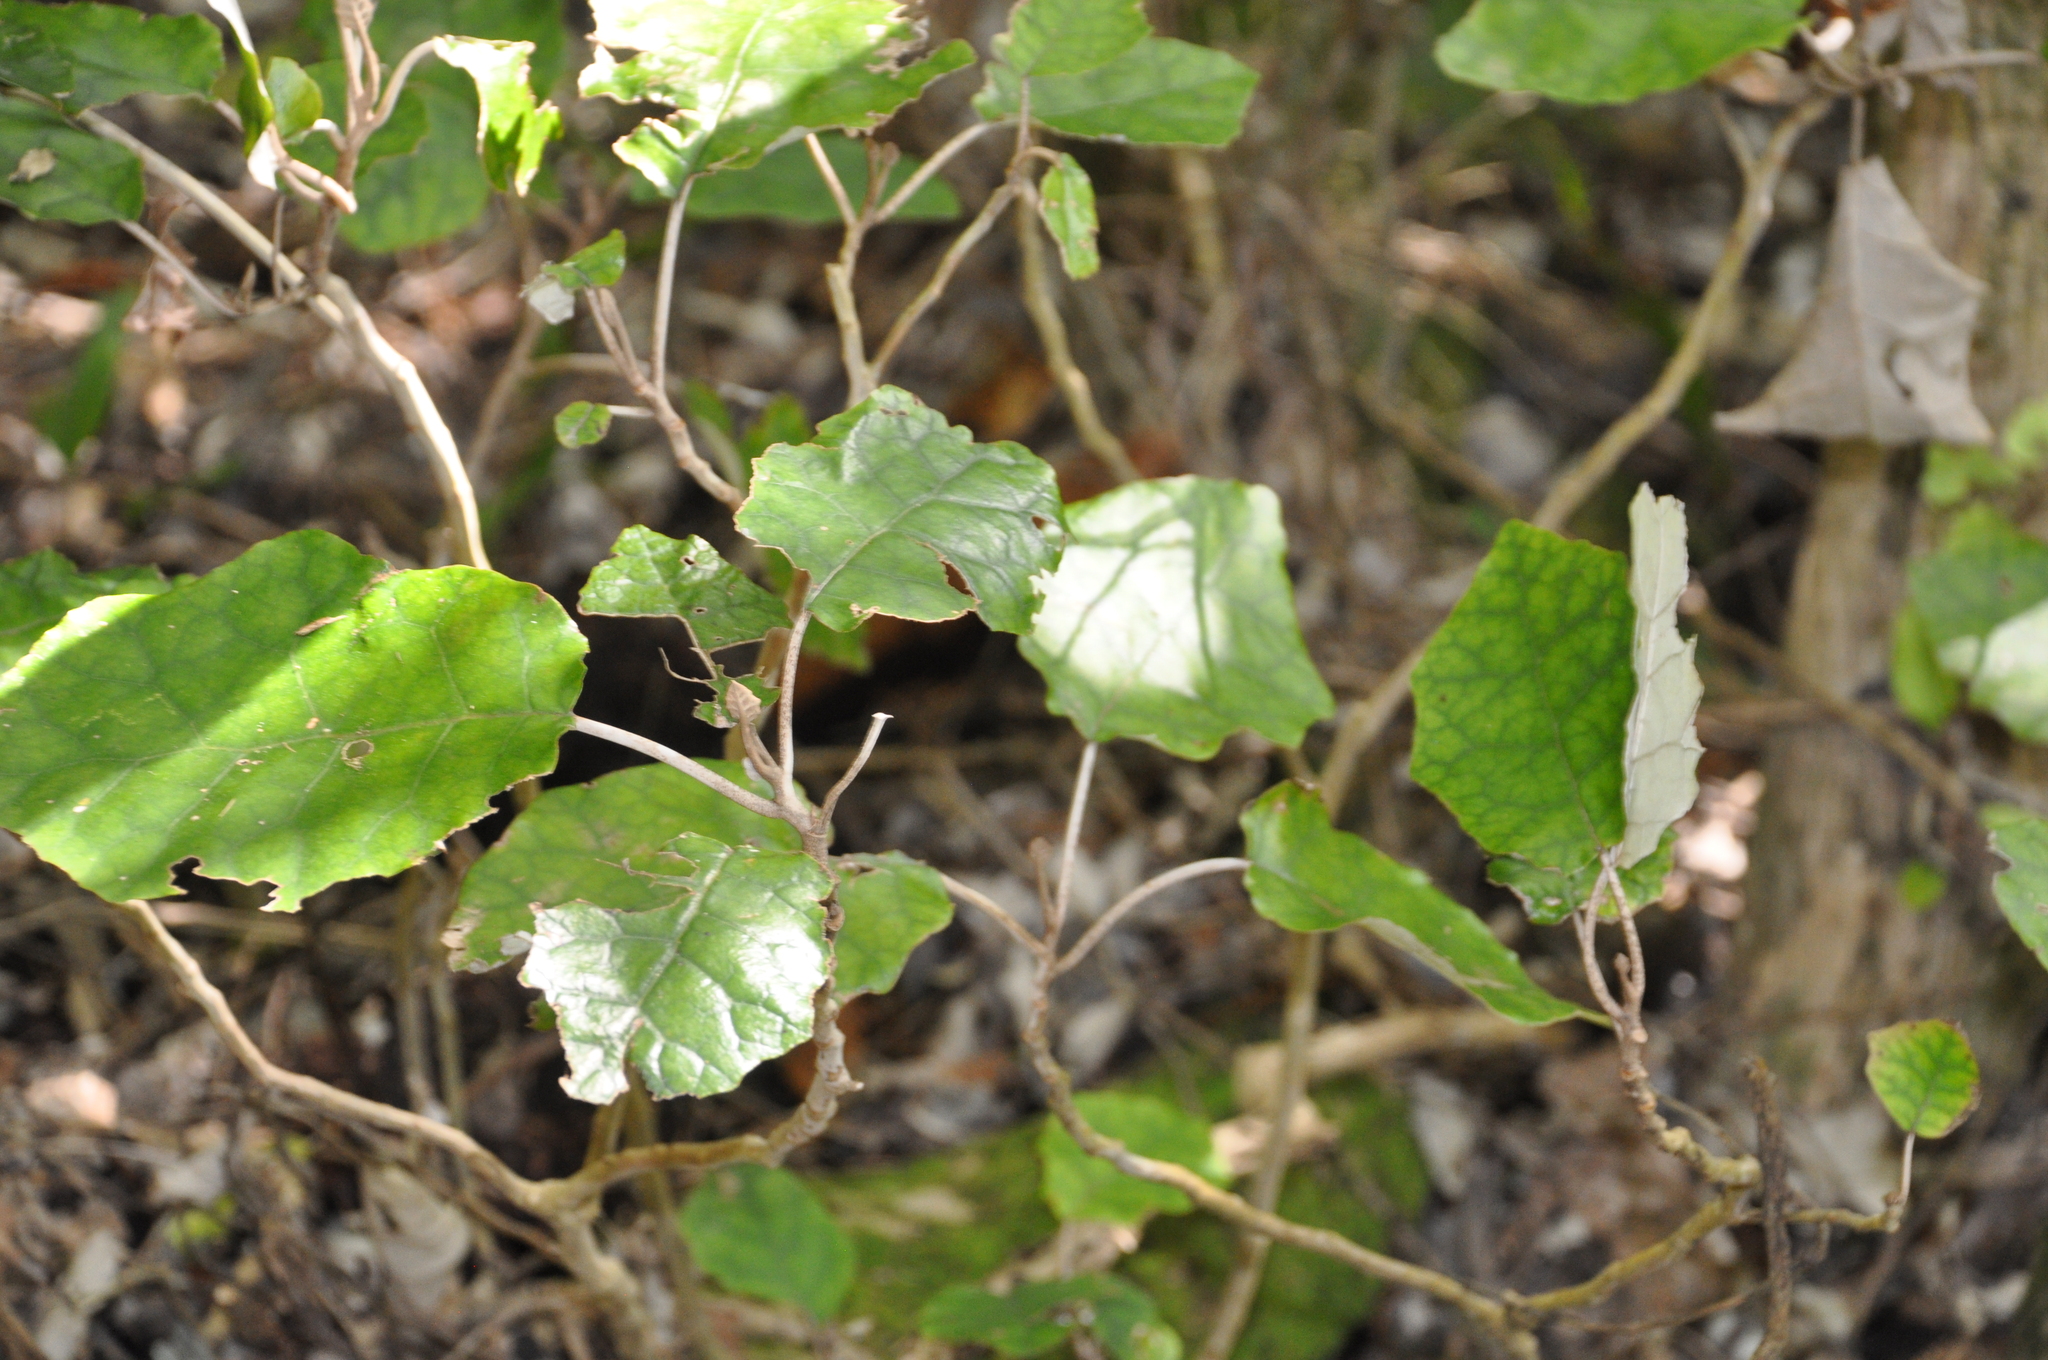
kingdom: Plantae
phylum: Tracheophyta
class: Magnoliopsida
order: Asterales
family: Asteraceae
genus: Brachyglottis
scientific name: Brachyglottis repanda
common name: Hedge ragwort
